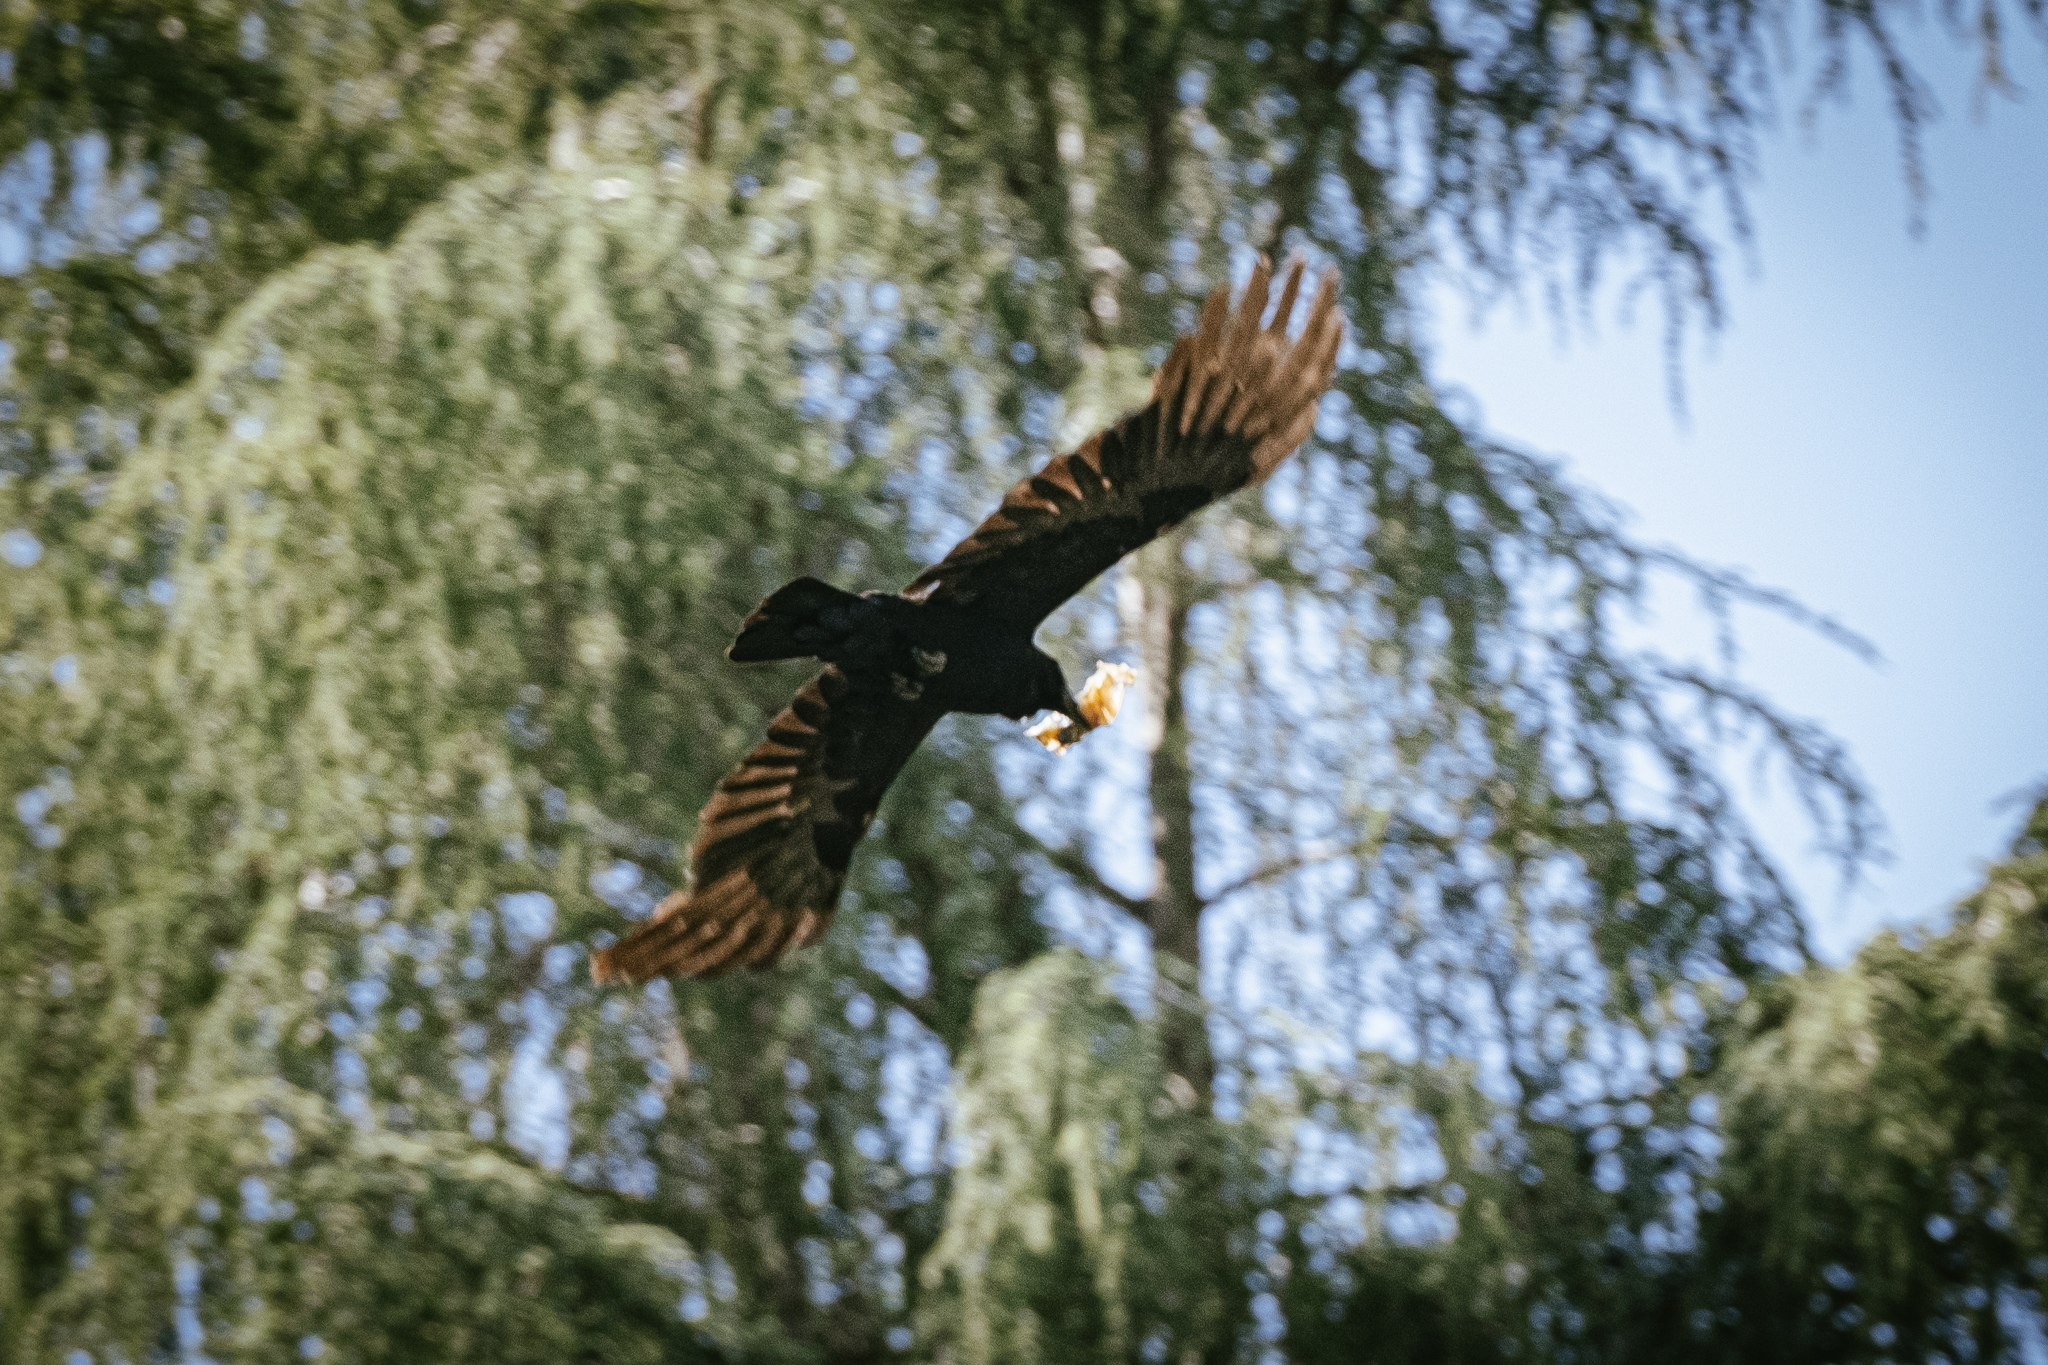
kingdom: Animalia
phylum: Chordata
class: Aves
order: Passeriformes
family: Corvidae
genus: Corvus
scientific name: Corvus corone
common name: Carrion crow
